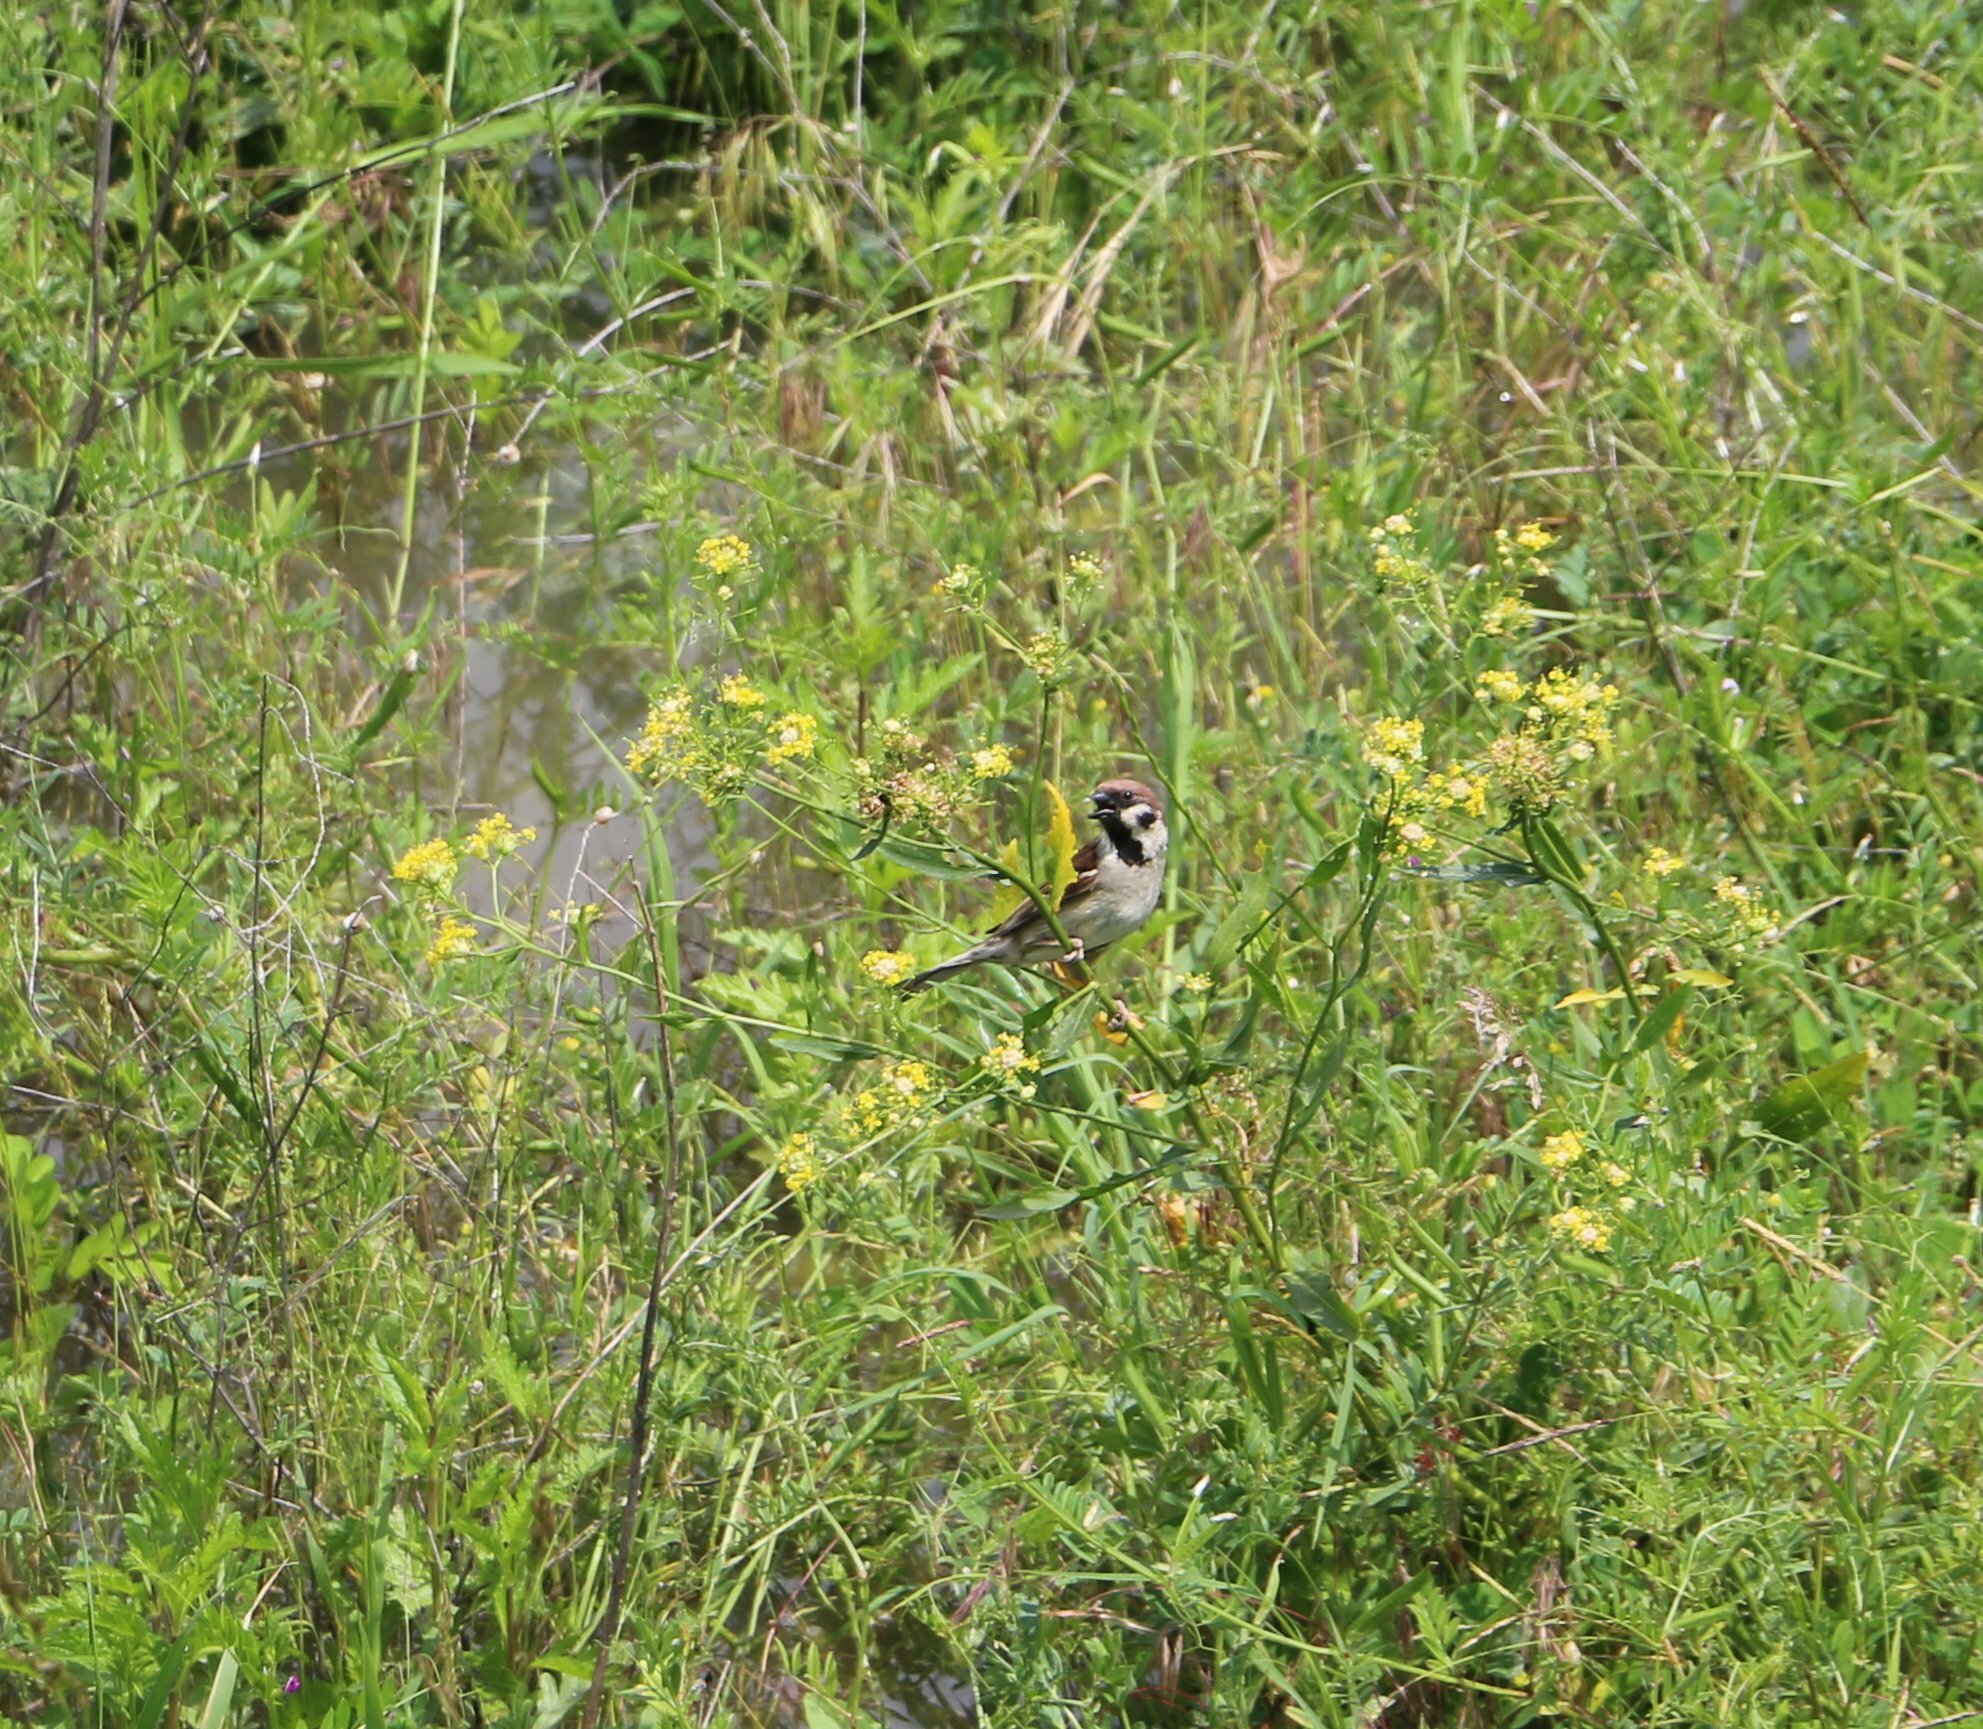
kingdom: Animalia
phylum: Chordata
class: Aves
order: Passeriformes
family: Passeridae
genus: Passer
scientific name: Passer montanus
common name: Eurasian tree sparrow
